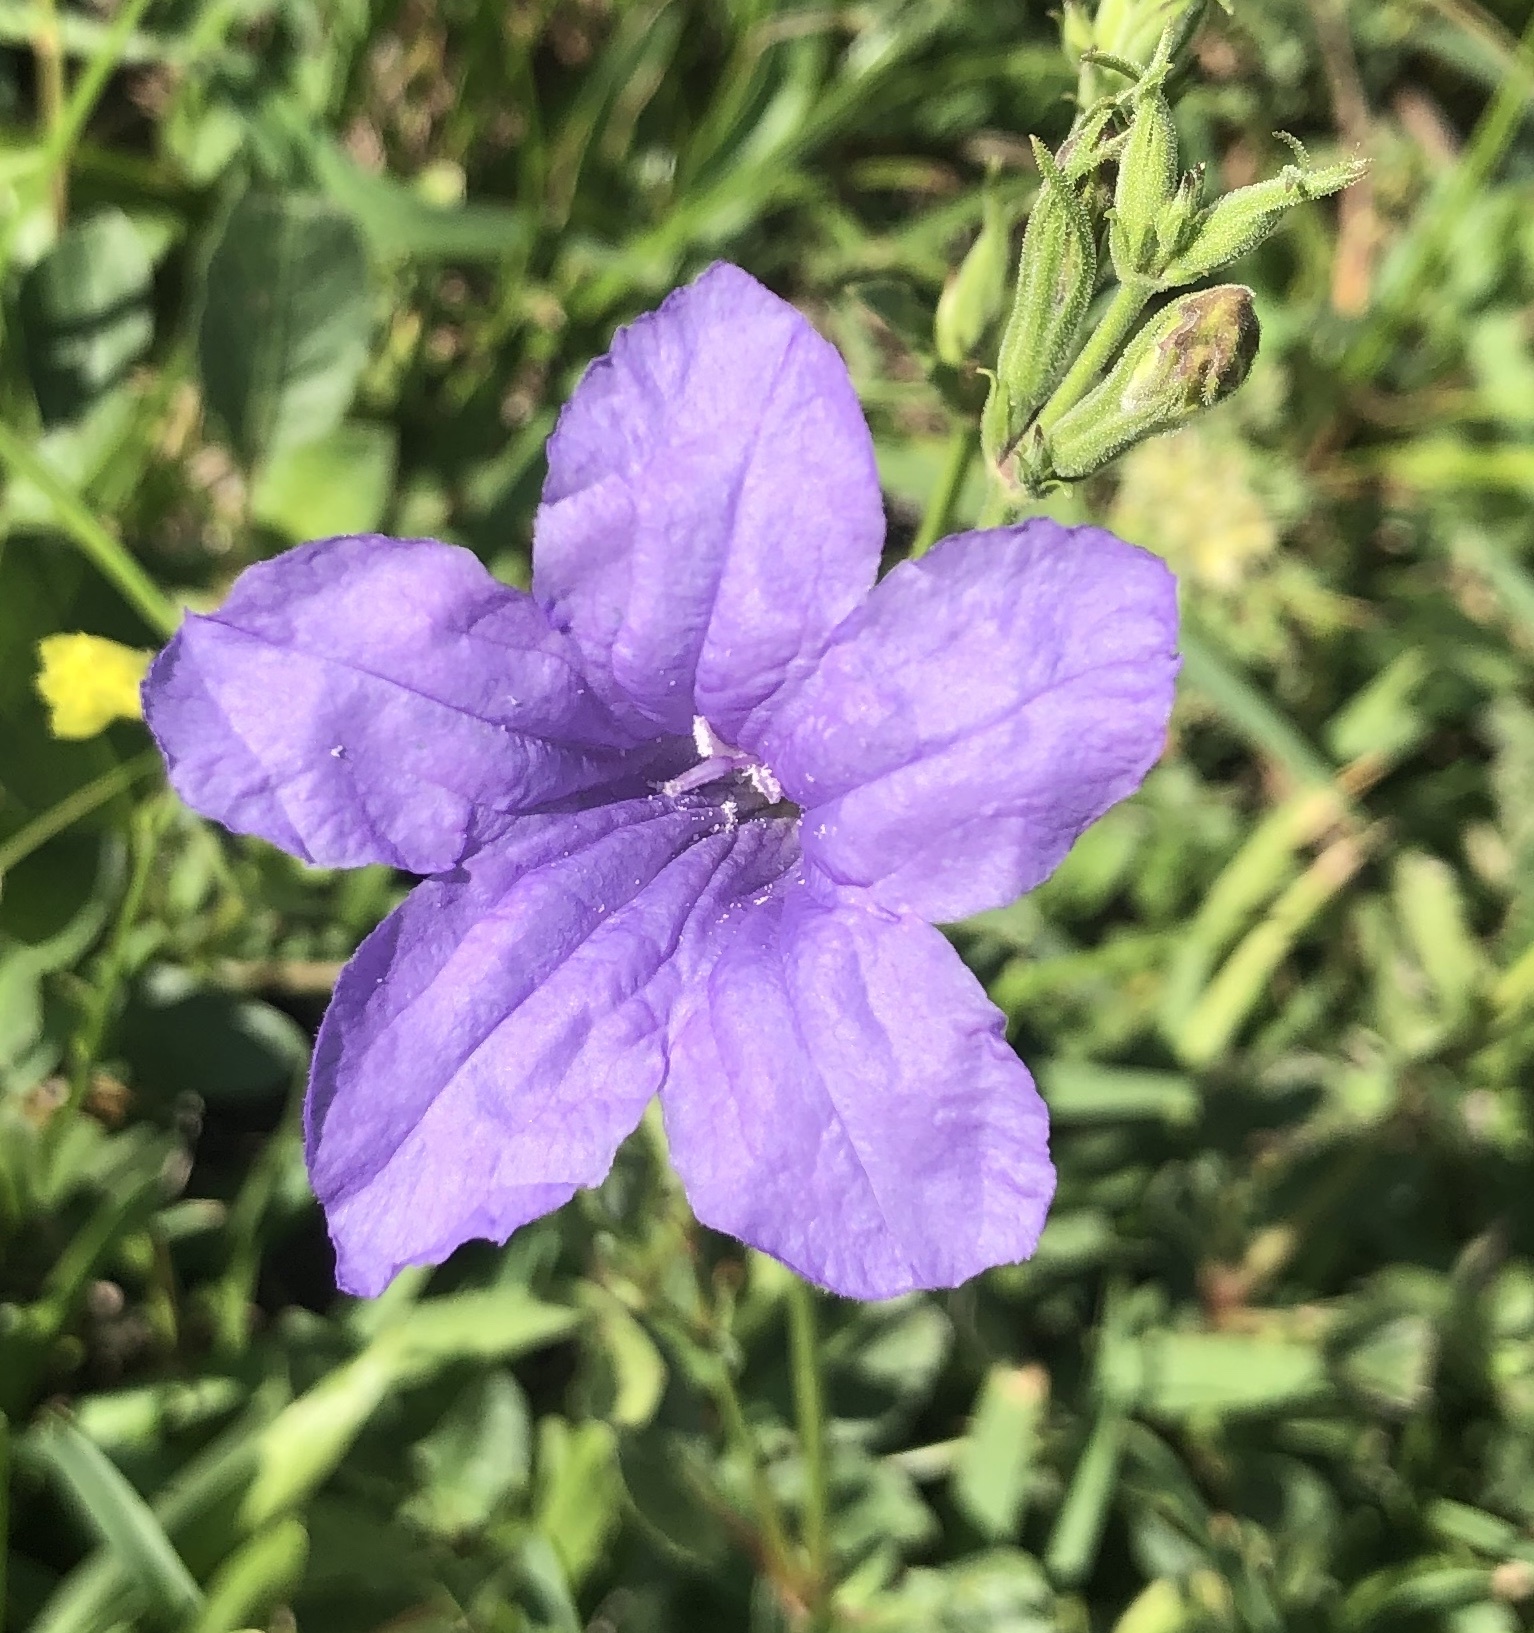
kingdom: Plantae
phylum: Tracheophyta
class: Magnoliopsida
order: Lamiales
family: Acanthaceae
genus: Ruellia
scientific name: Ruellia ciliatiflora
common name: Hairyflower wild petunia
